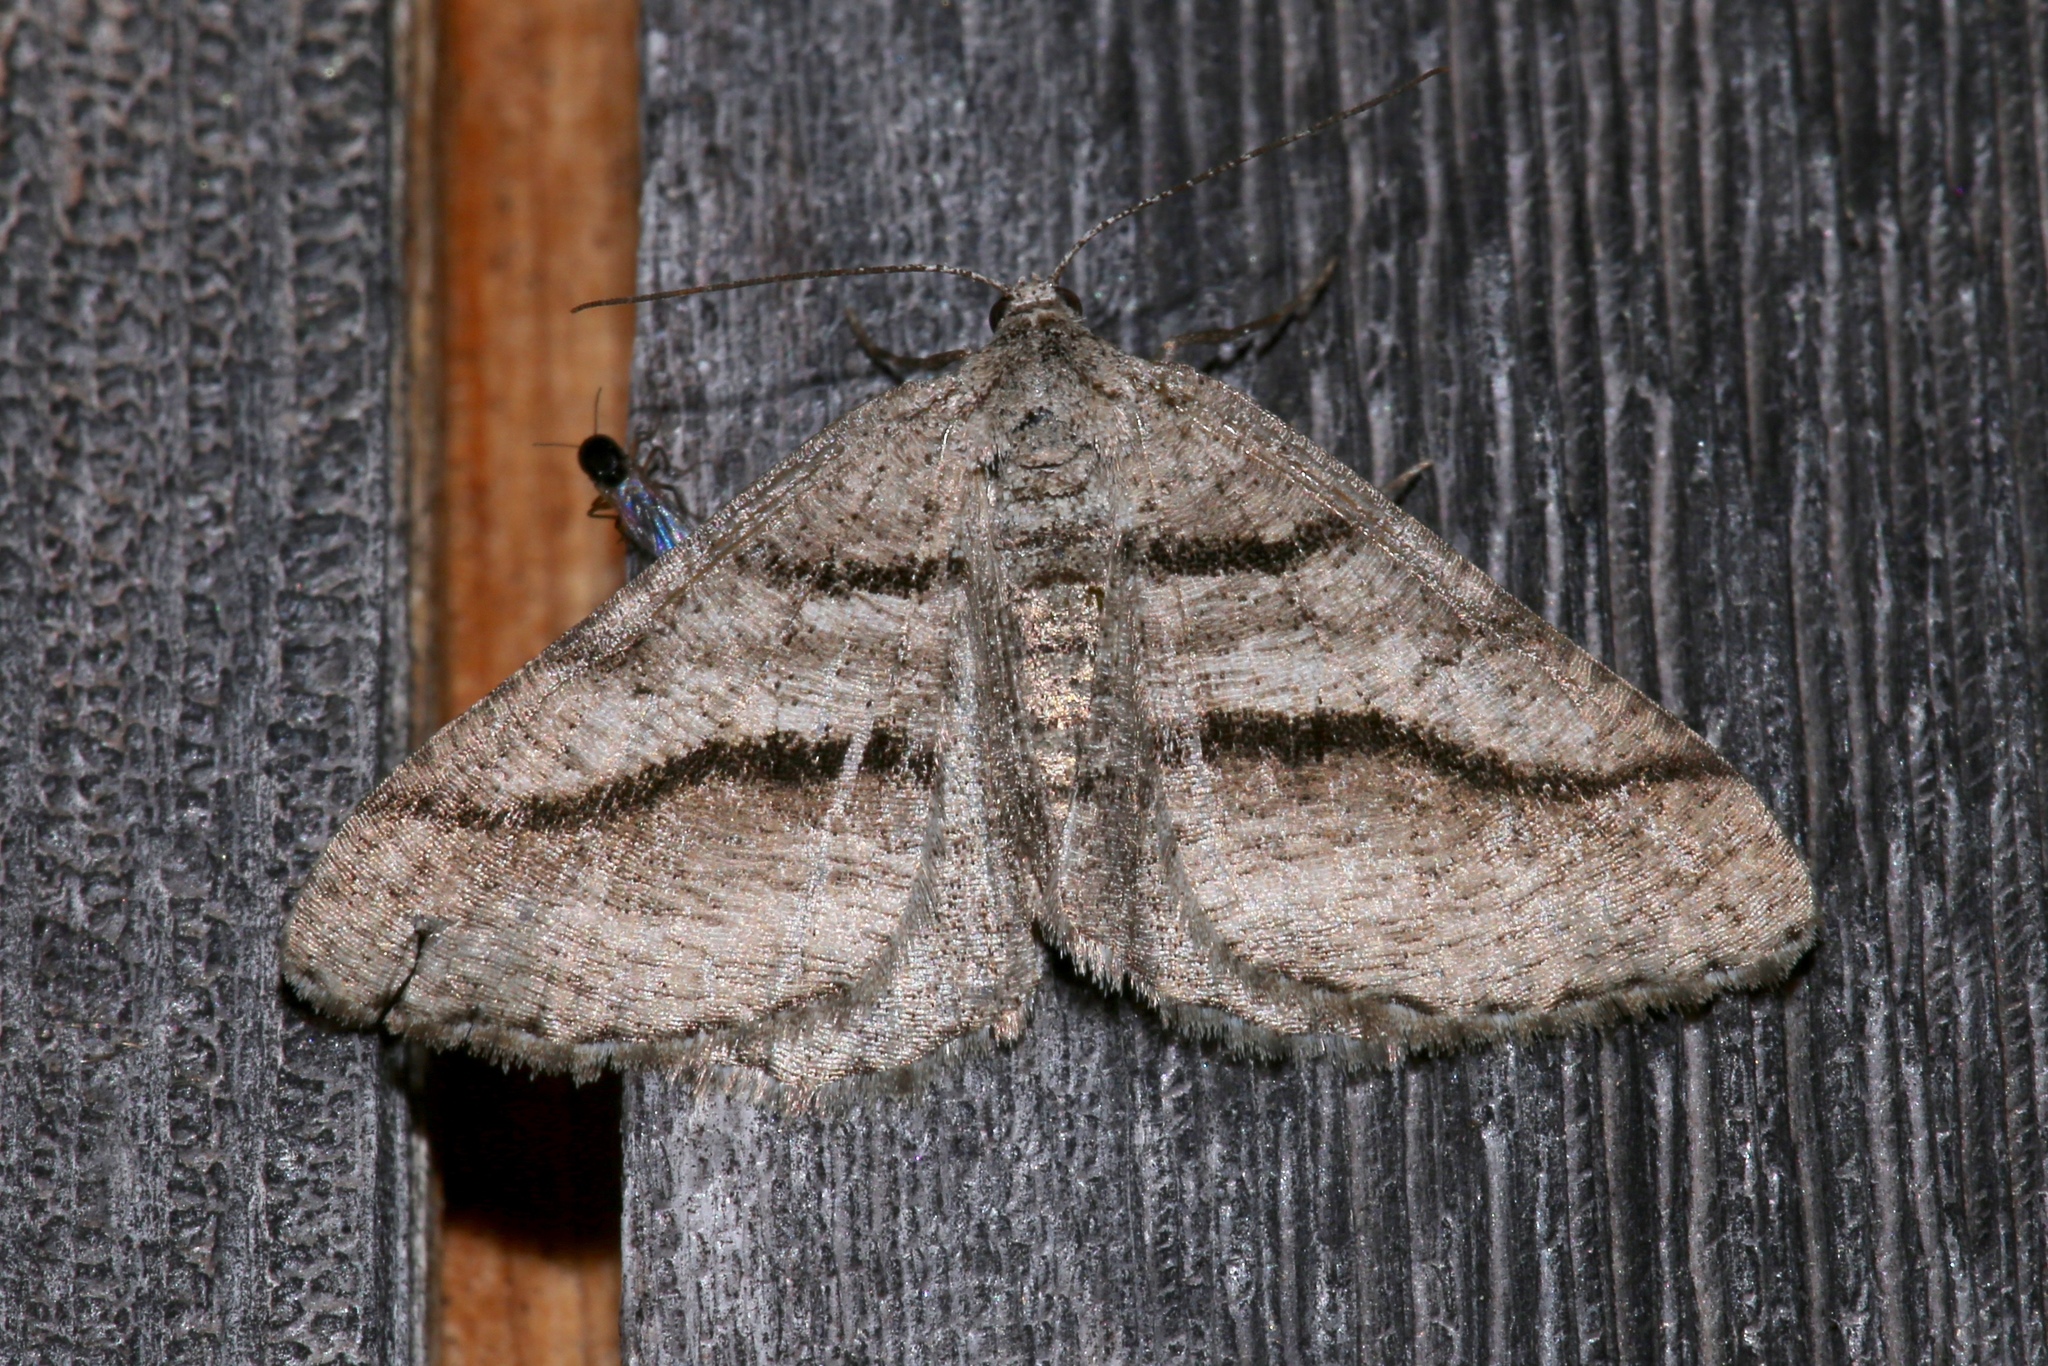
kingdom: Animalia
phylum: Arthropoda
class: Insecta
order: Lepidoptera
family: Geometridae
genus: Digrammia
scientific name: Digrammia continuata
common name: Curve-lined angle
